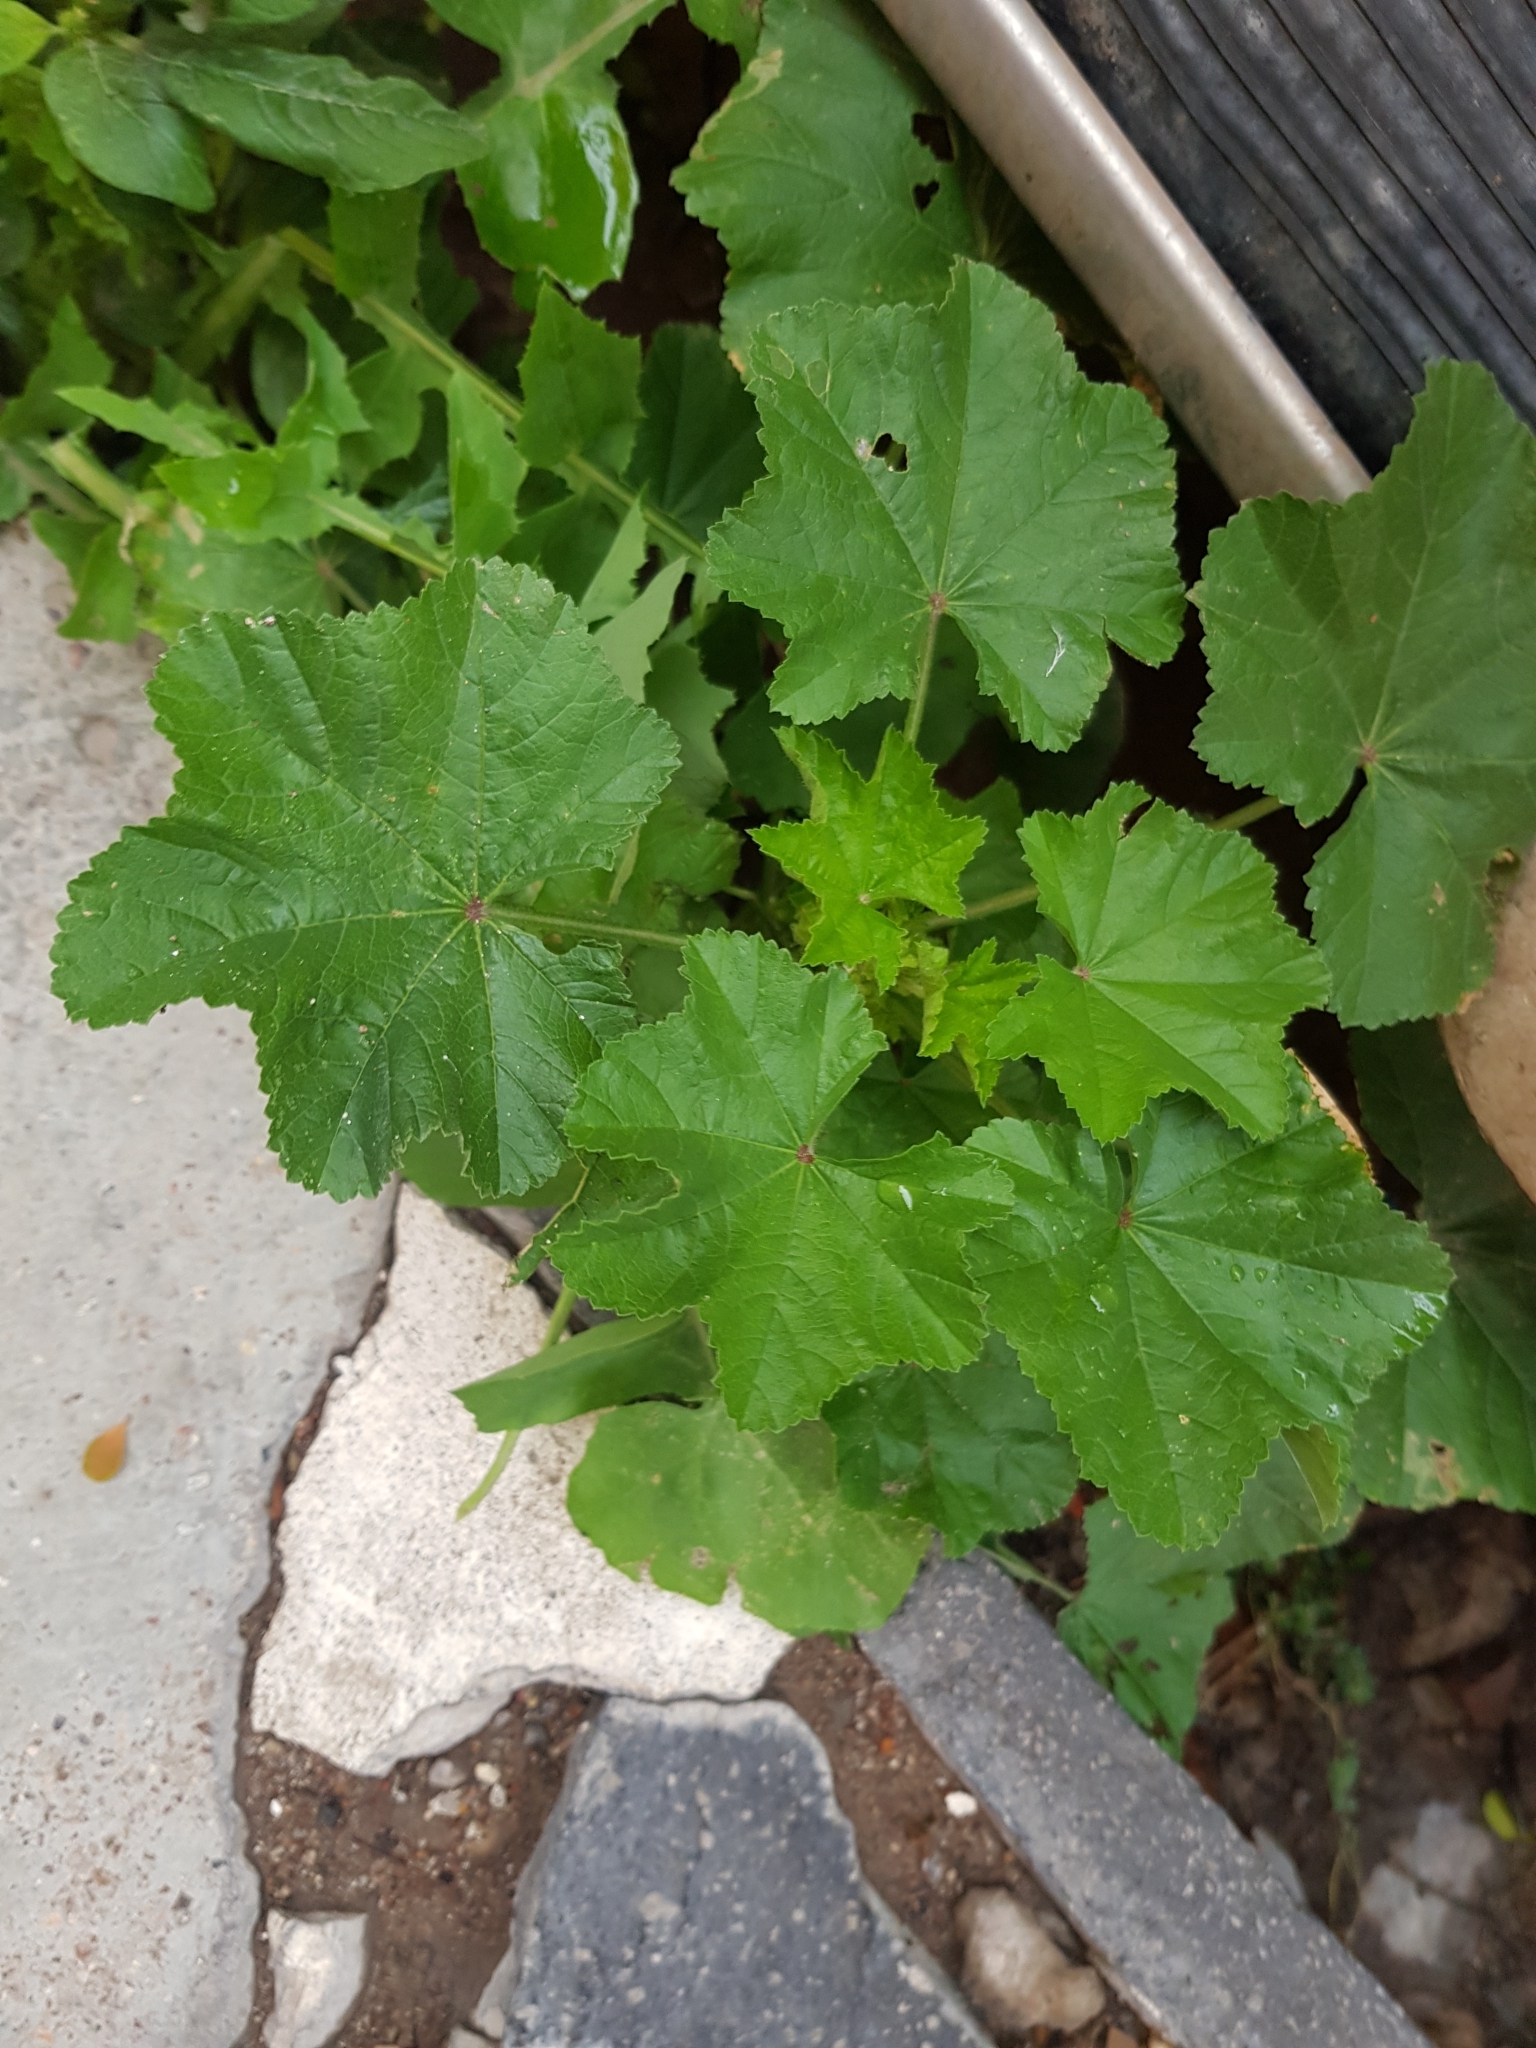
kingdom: Plantae
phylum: Tracheophyta
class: Magnoliopsida
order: Malvales
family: Malvaceae
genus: Malva
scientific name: Malva parviflora
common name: Least mallow
